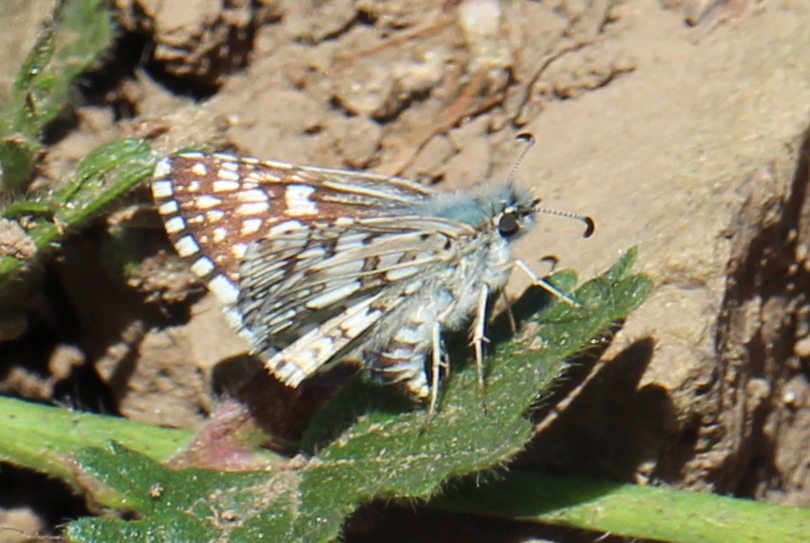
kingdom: Animalia
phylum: Arthropoda
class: Insecta
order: Lepidoptera
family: Hesperiidae
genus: Burnsius
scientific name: Burnsius communis
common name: Common checkered-skipper
